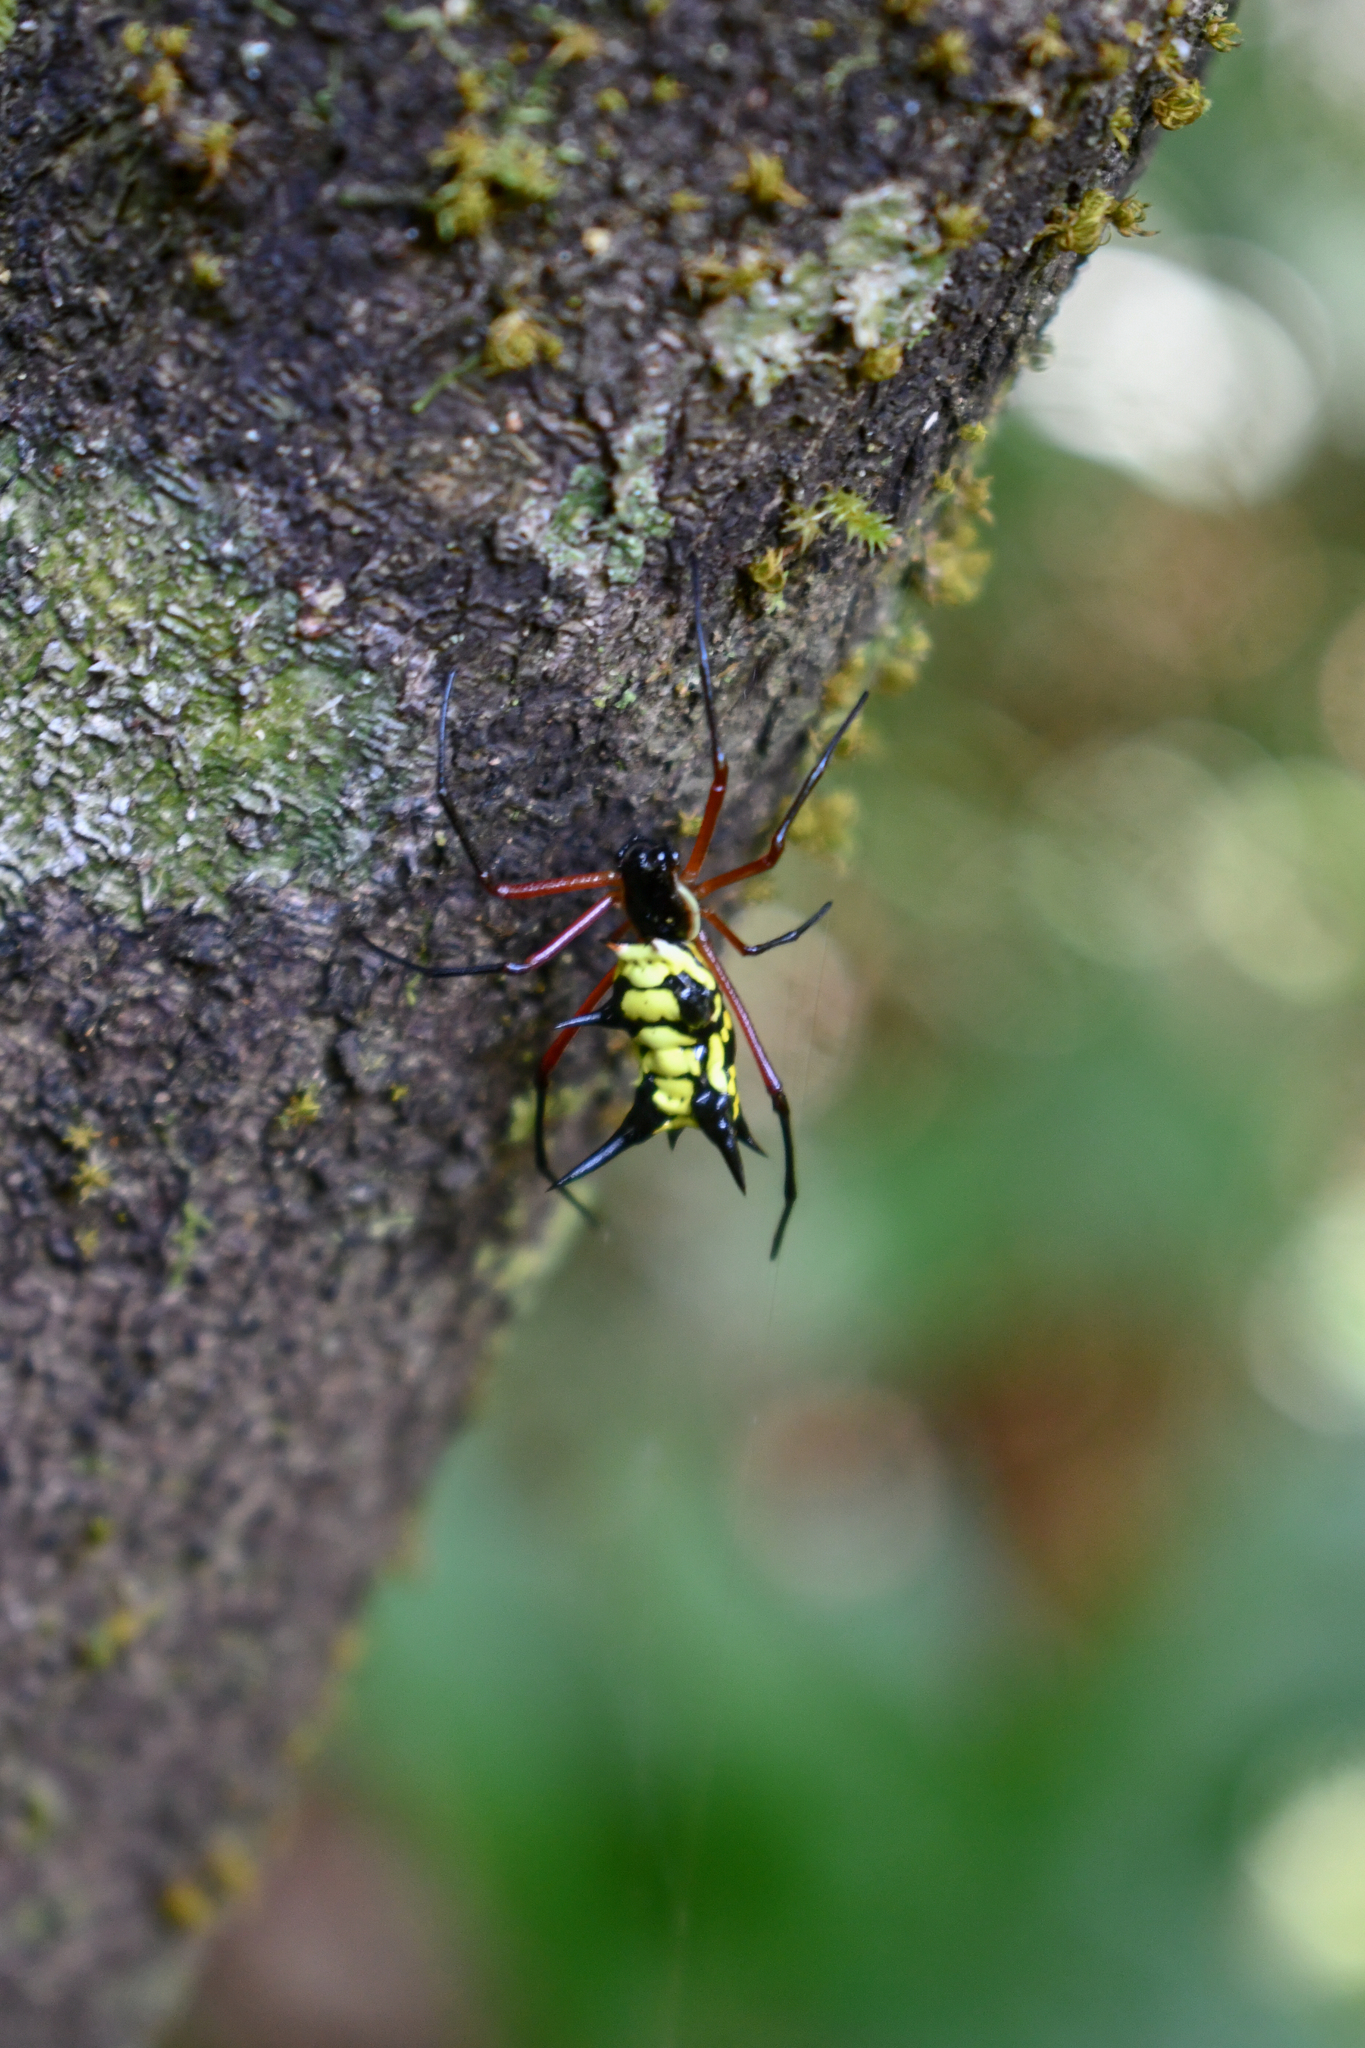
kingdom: Animalia
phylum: Arthropoda
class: Arachnida
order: Araneae
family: Araneidae
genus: Micrathena
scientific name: Micrathena kirbyi
